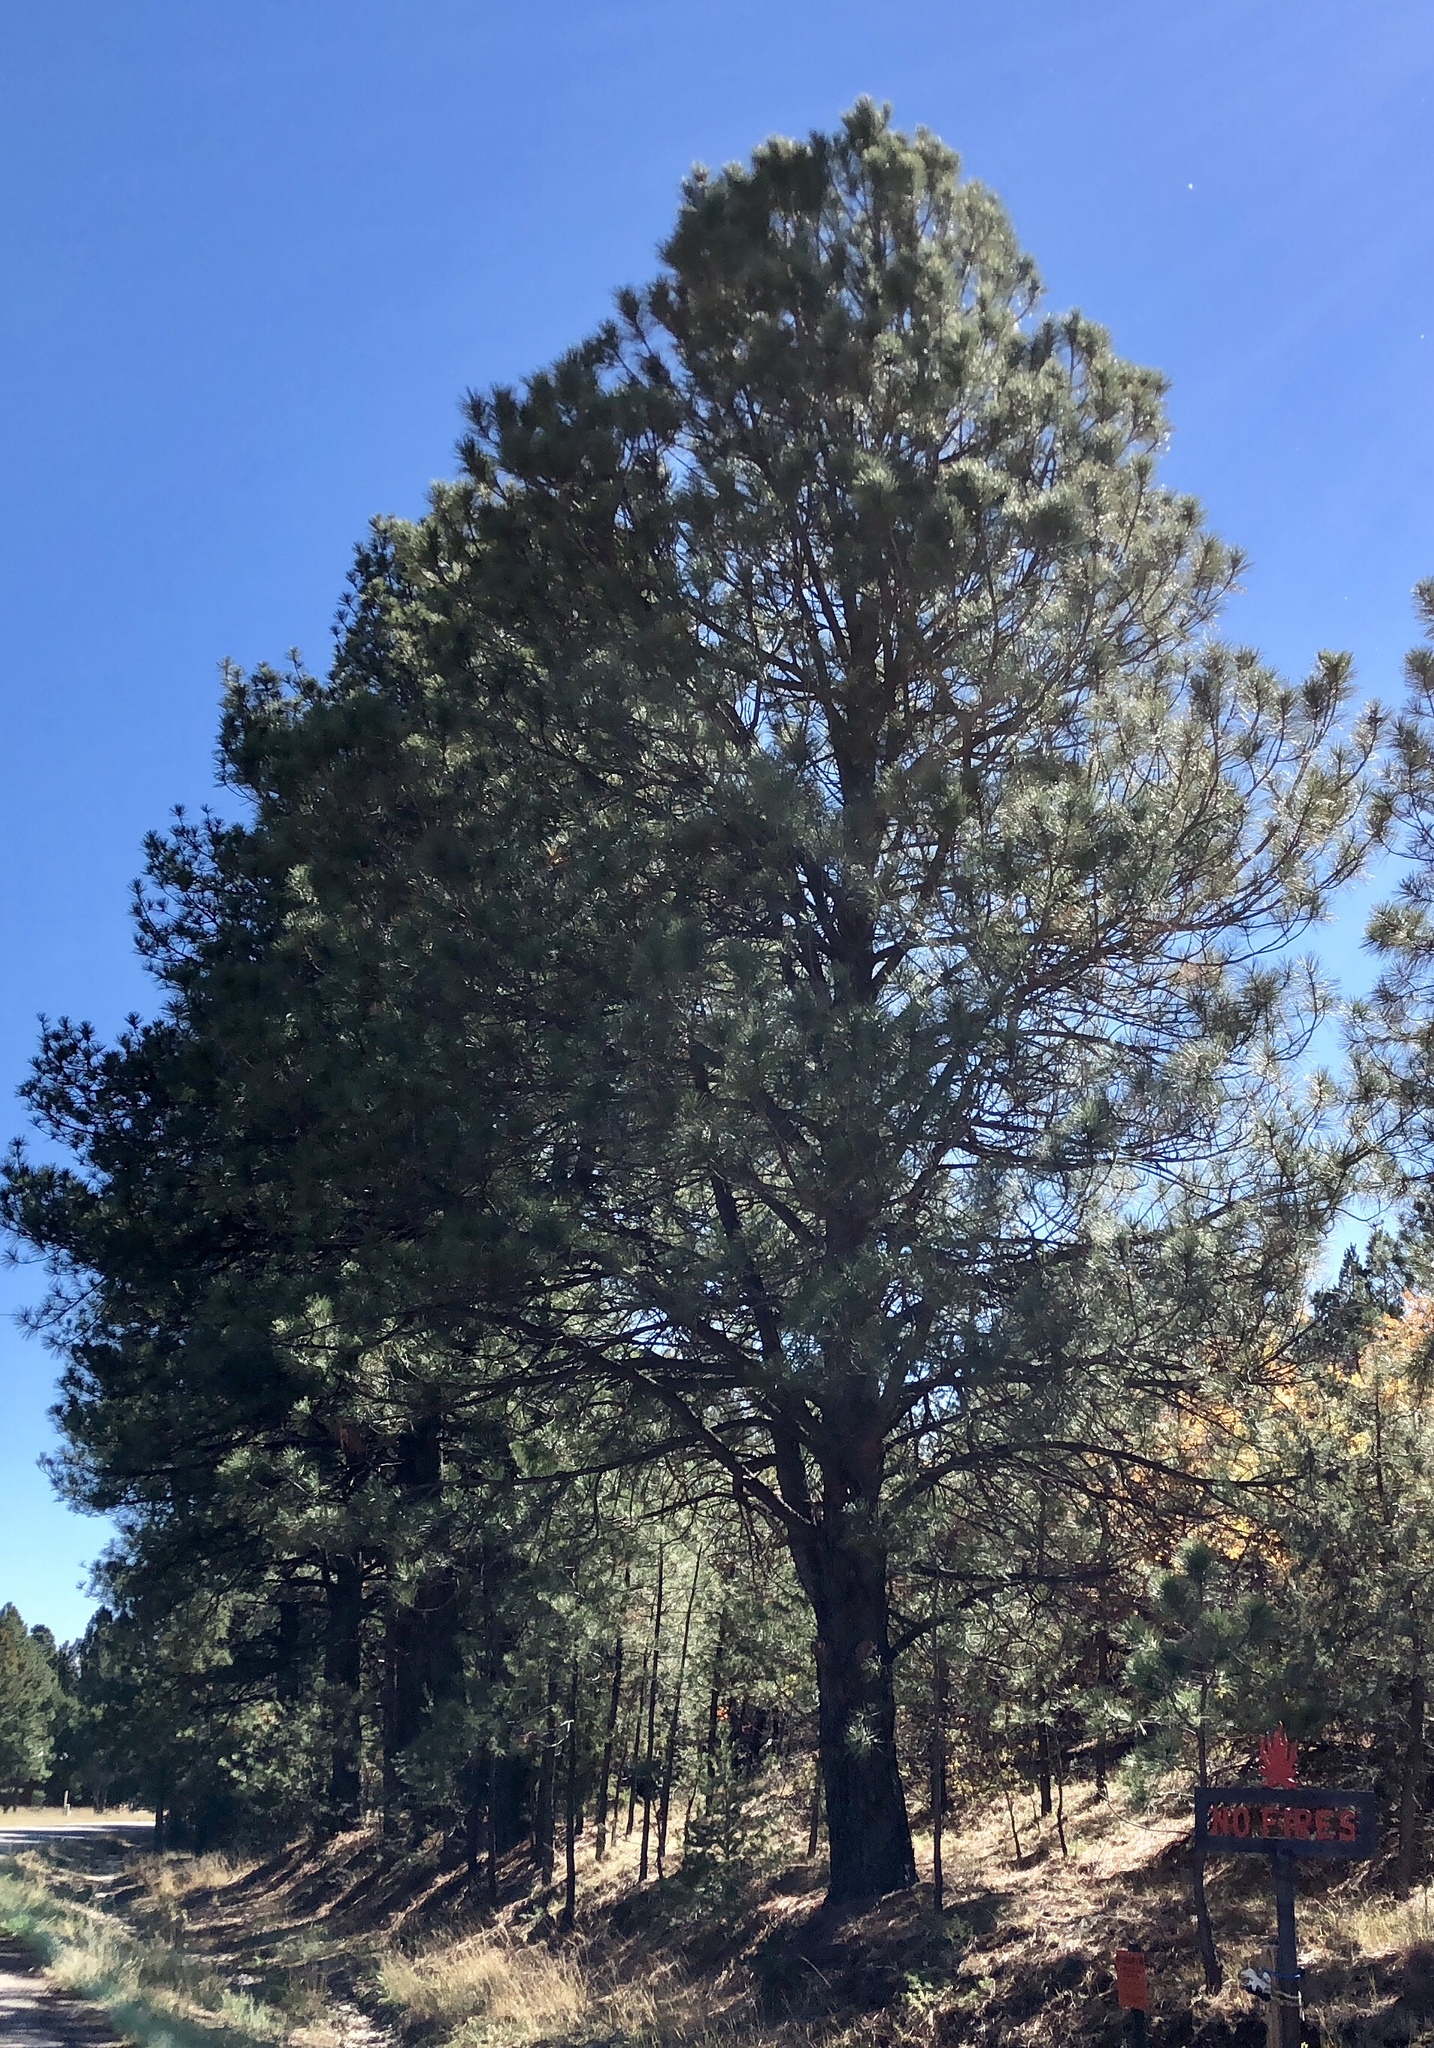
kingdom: Plantae
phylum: Tracheophyta
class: Pinopsida
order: Pinales
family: Pinaceae
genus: Pinus
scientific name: Pinus ponderosa
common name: Western yellow-pine
